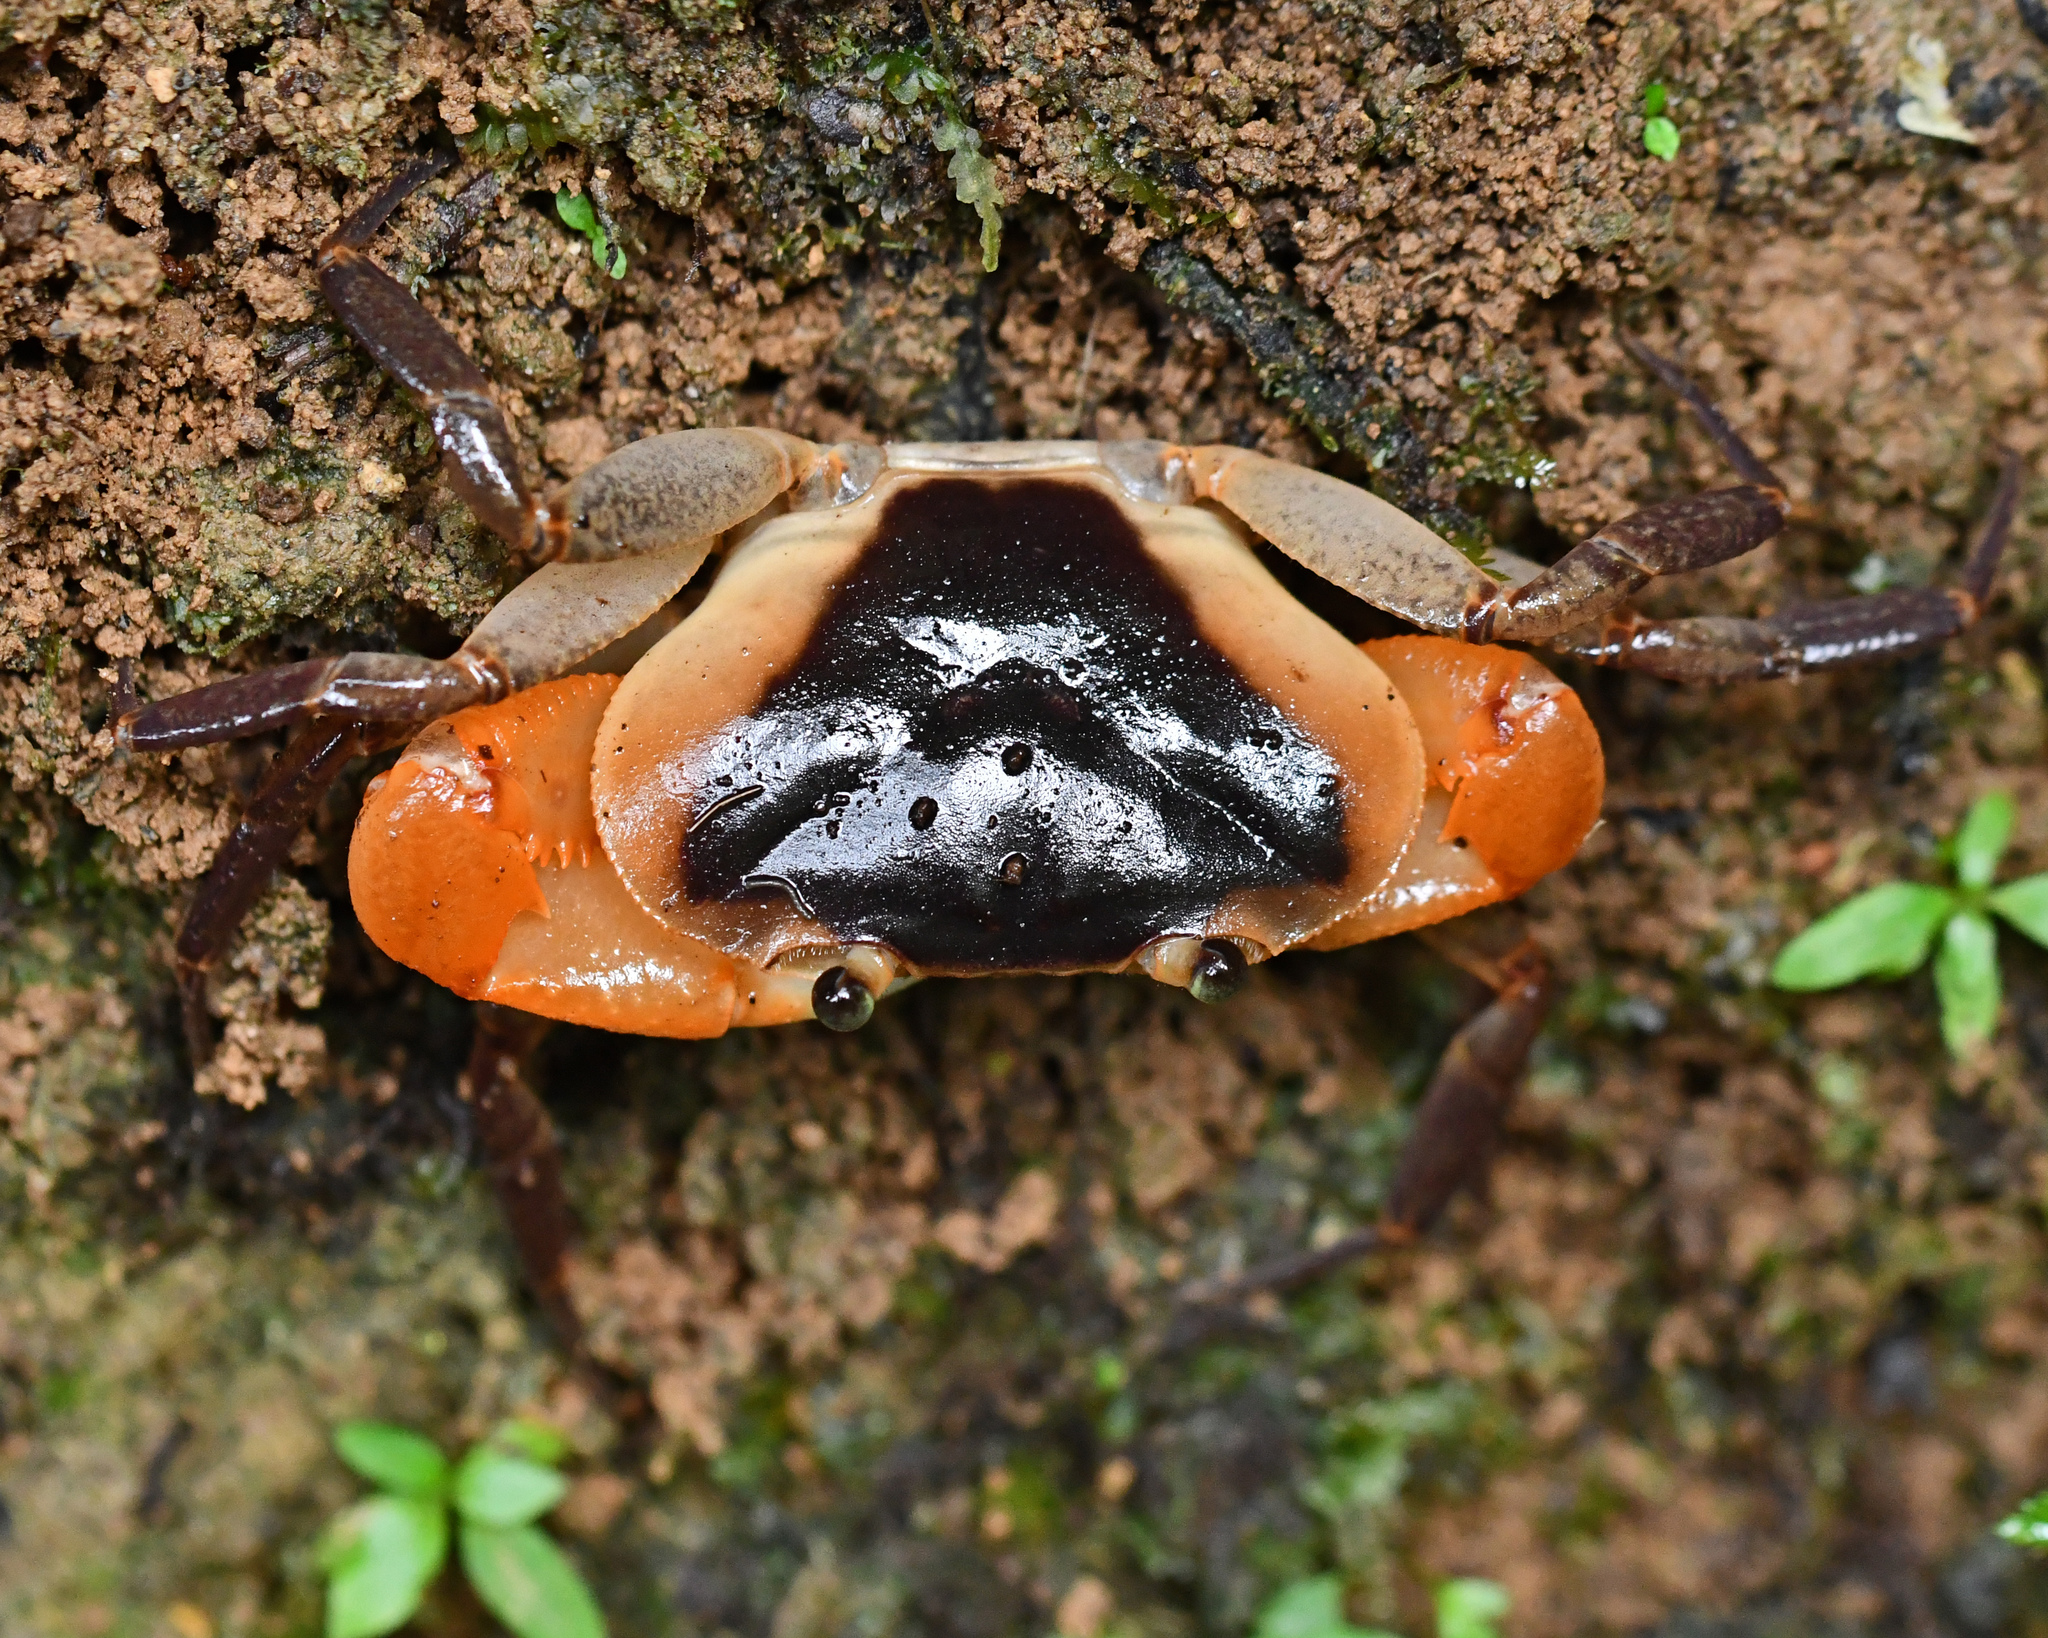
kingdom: Animalia
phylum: Arthropoda
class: Malacostraca
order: Decapoda
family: Pseudothelphusidae
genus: Guinotia
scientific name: Guinotia dentata
